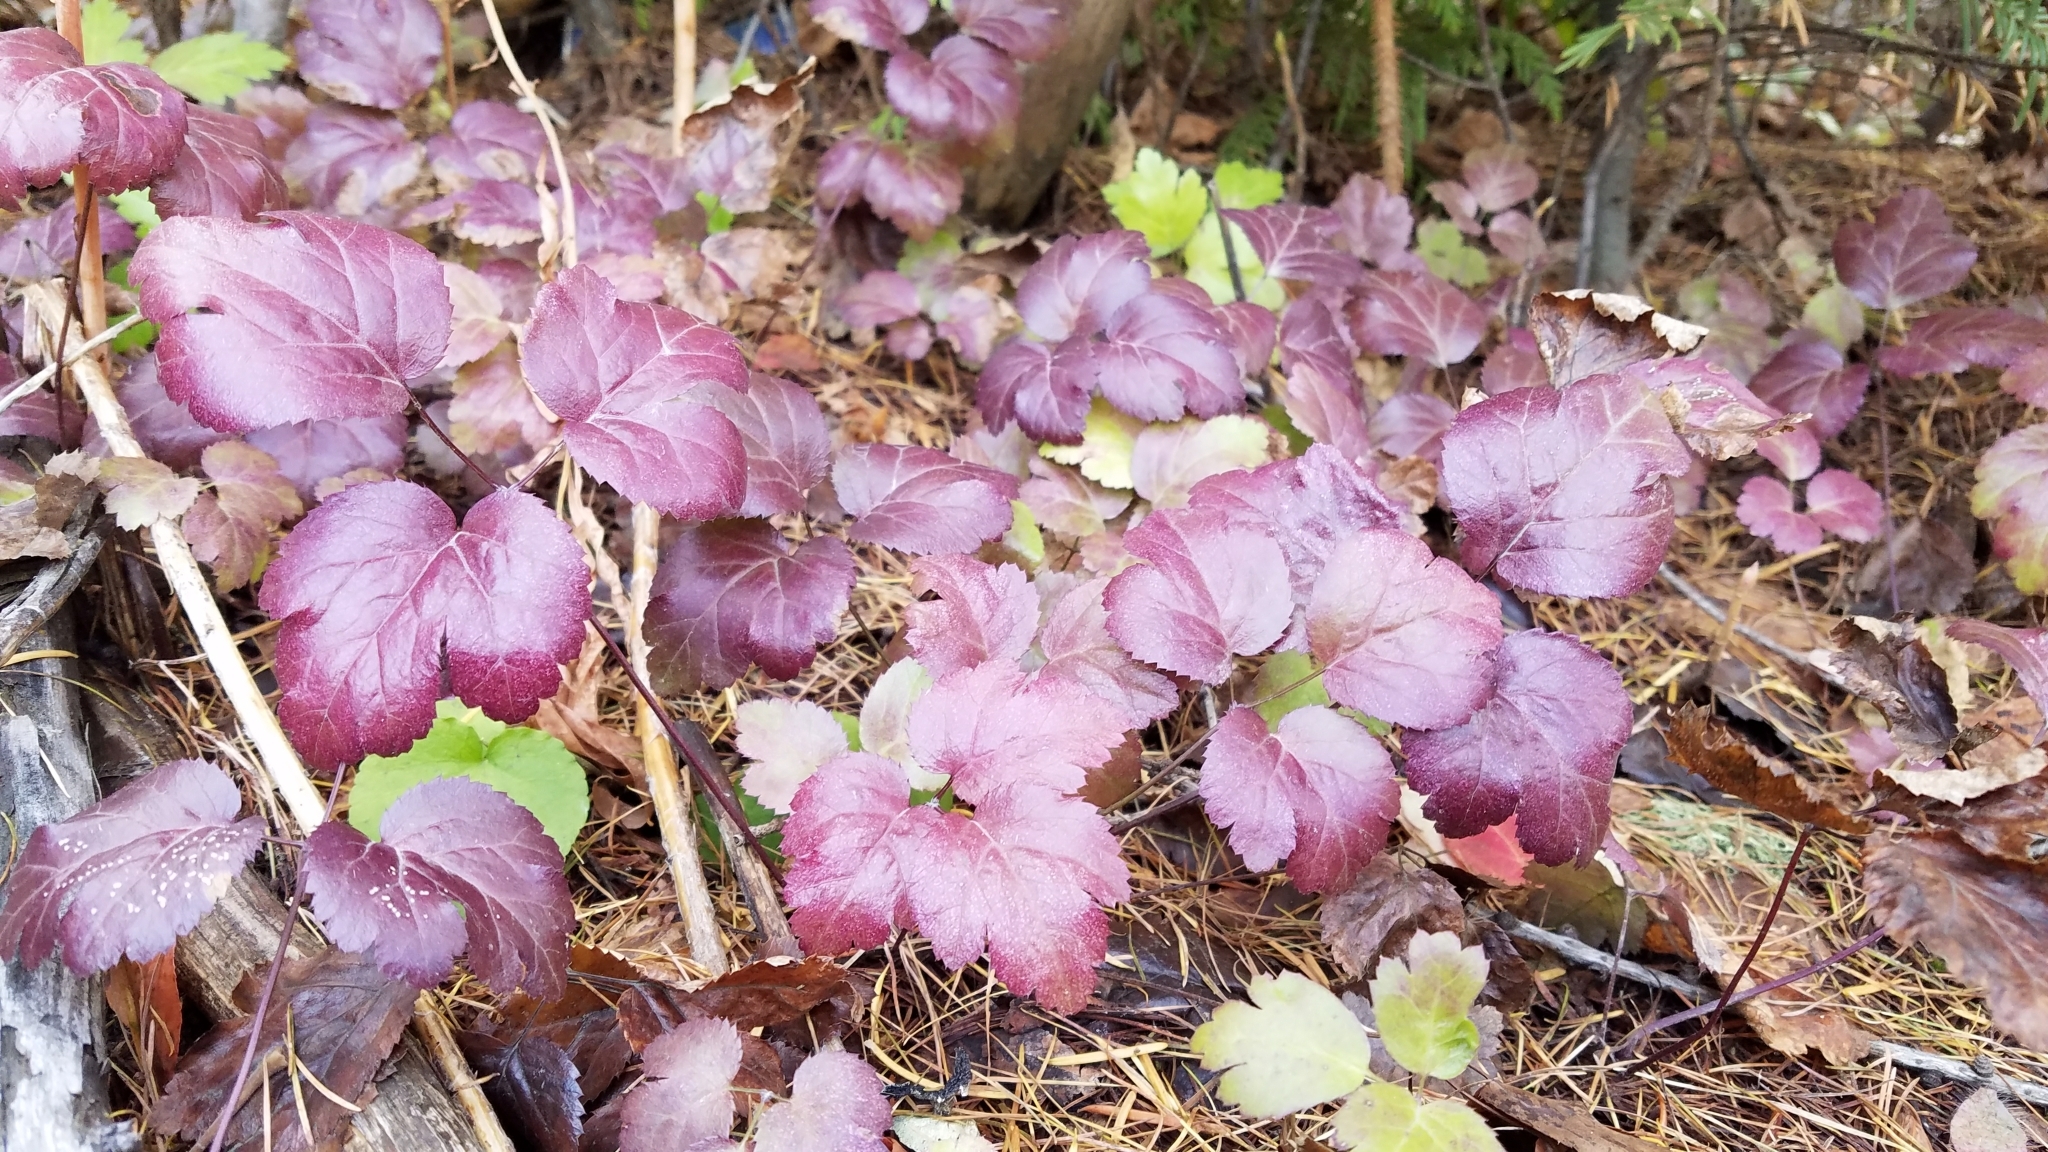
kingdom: Plantae
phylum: Tracheophyta
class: Magnoliopsida
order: Ranunculales
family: Ranunculaceae
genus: Coptis
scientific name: Coptis occidentalis
